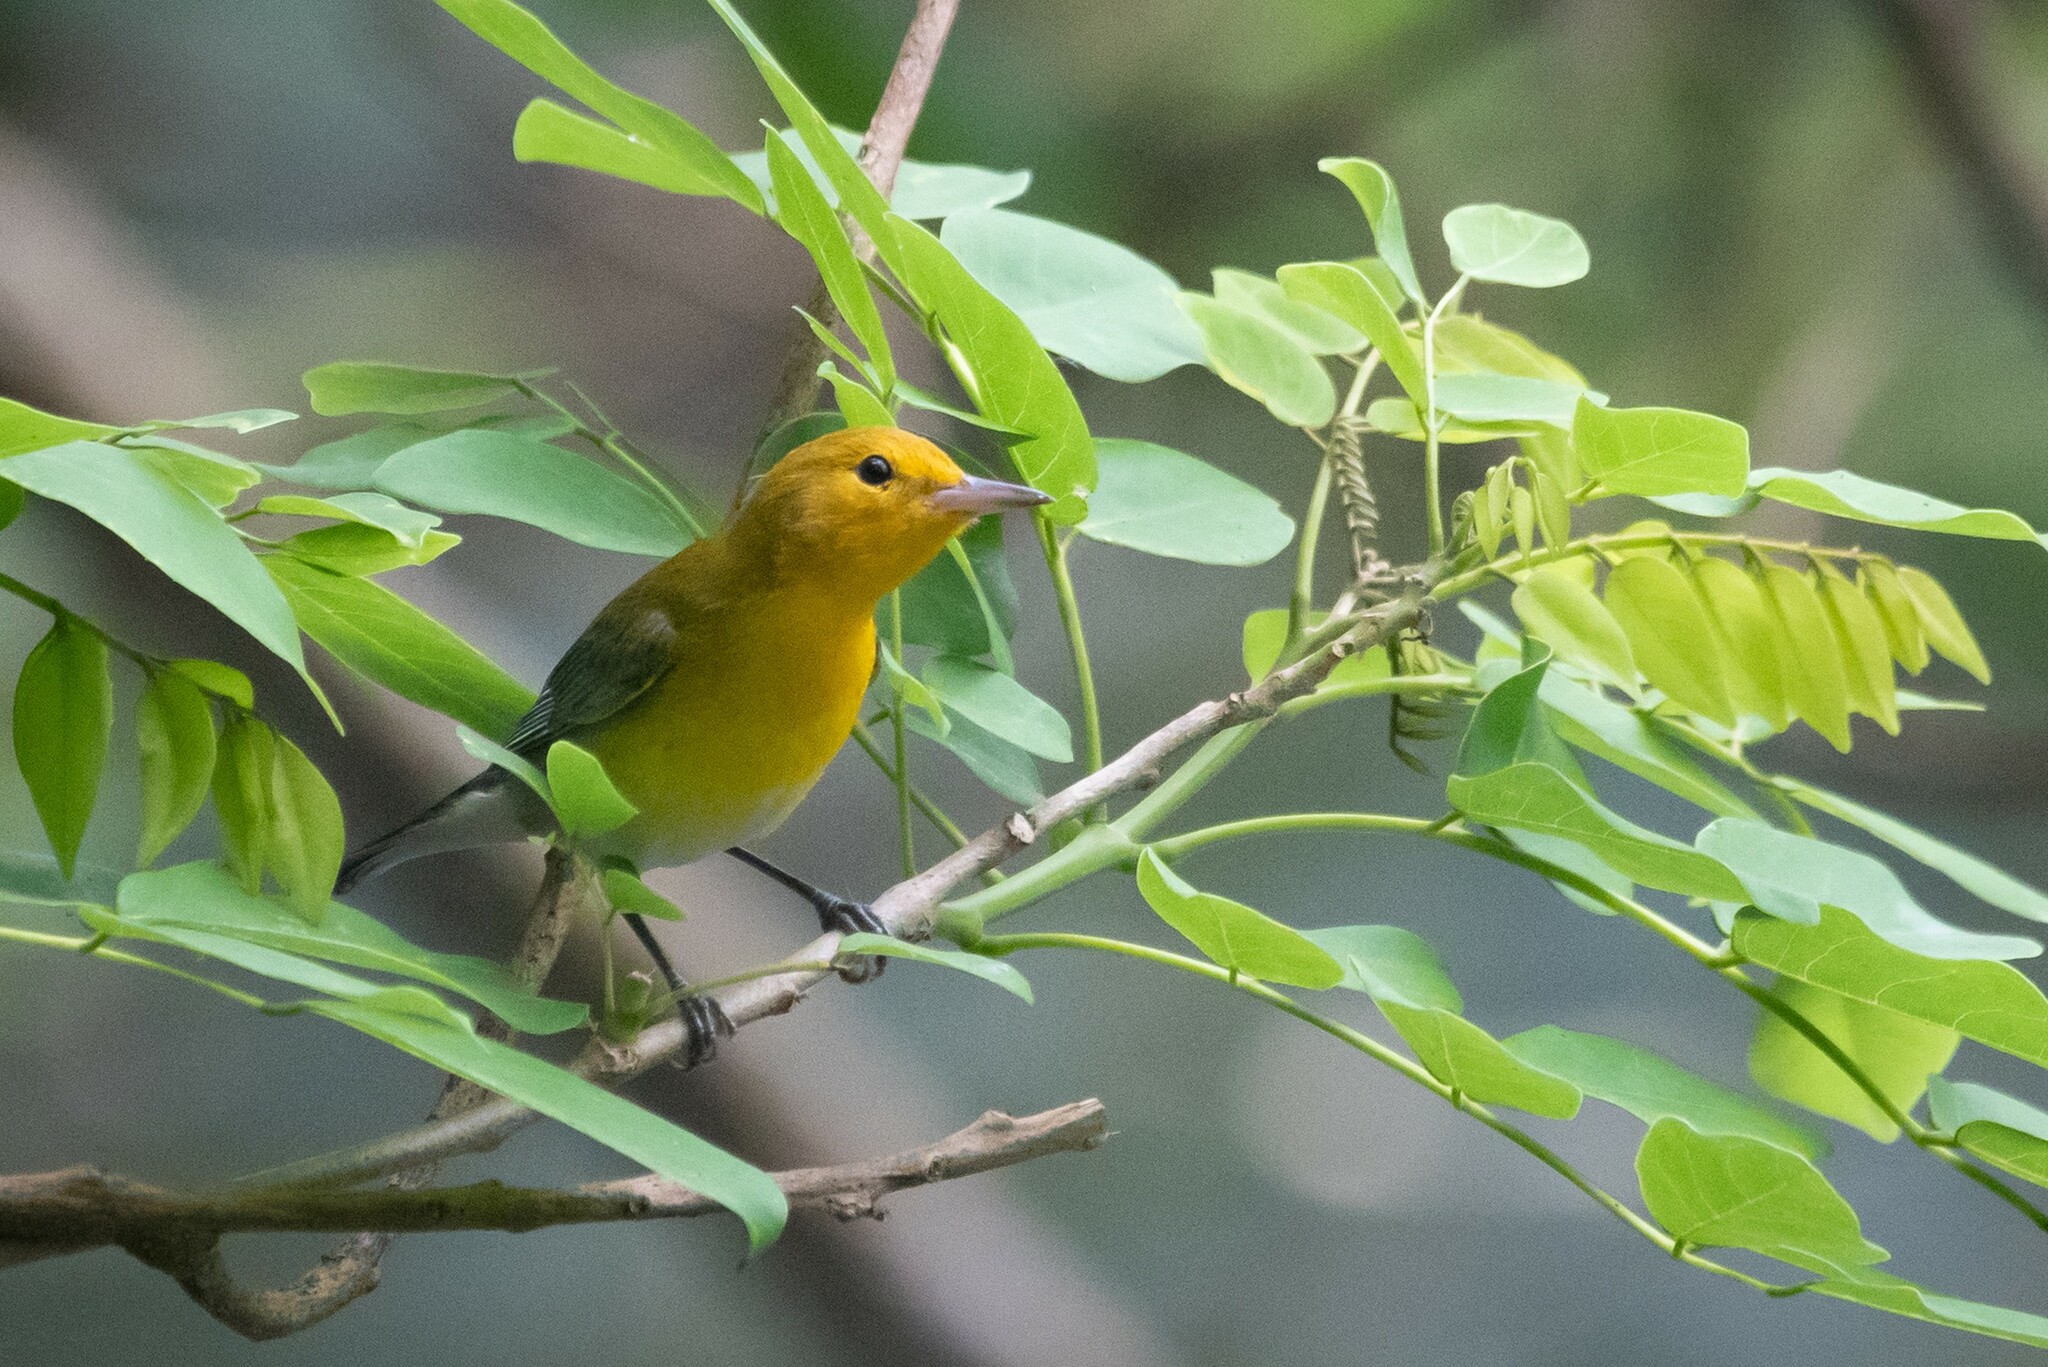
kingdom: Animalia
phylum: Chordata
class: Aves
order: Passeriformes
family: Parulidae
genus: Protonotaria
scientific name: Protonotaria citrea
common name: Prothonotary warbler
